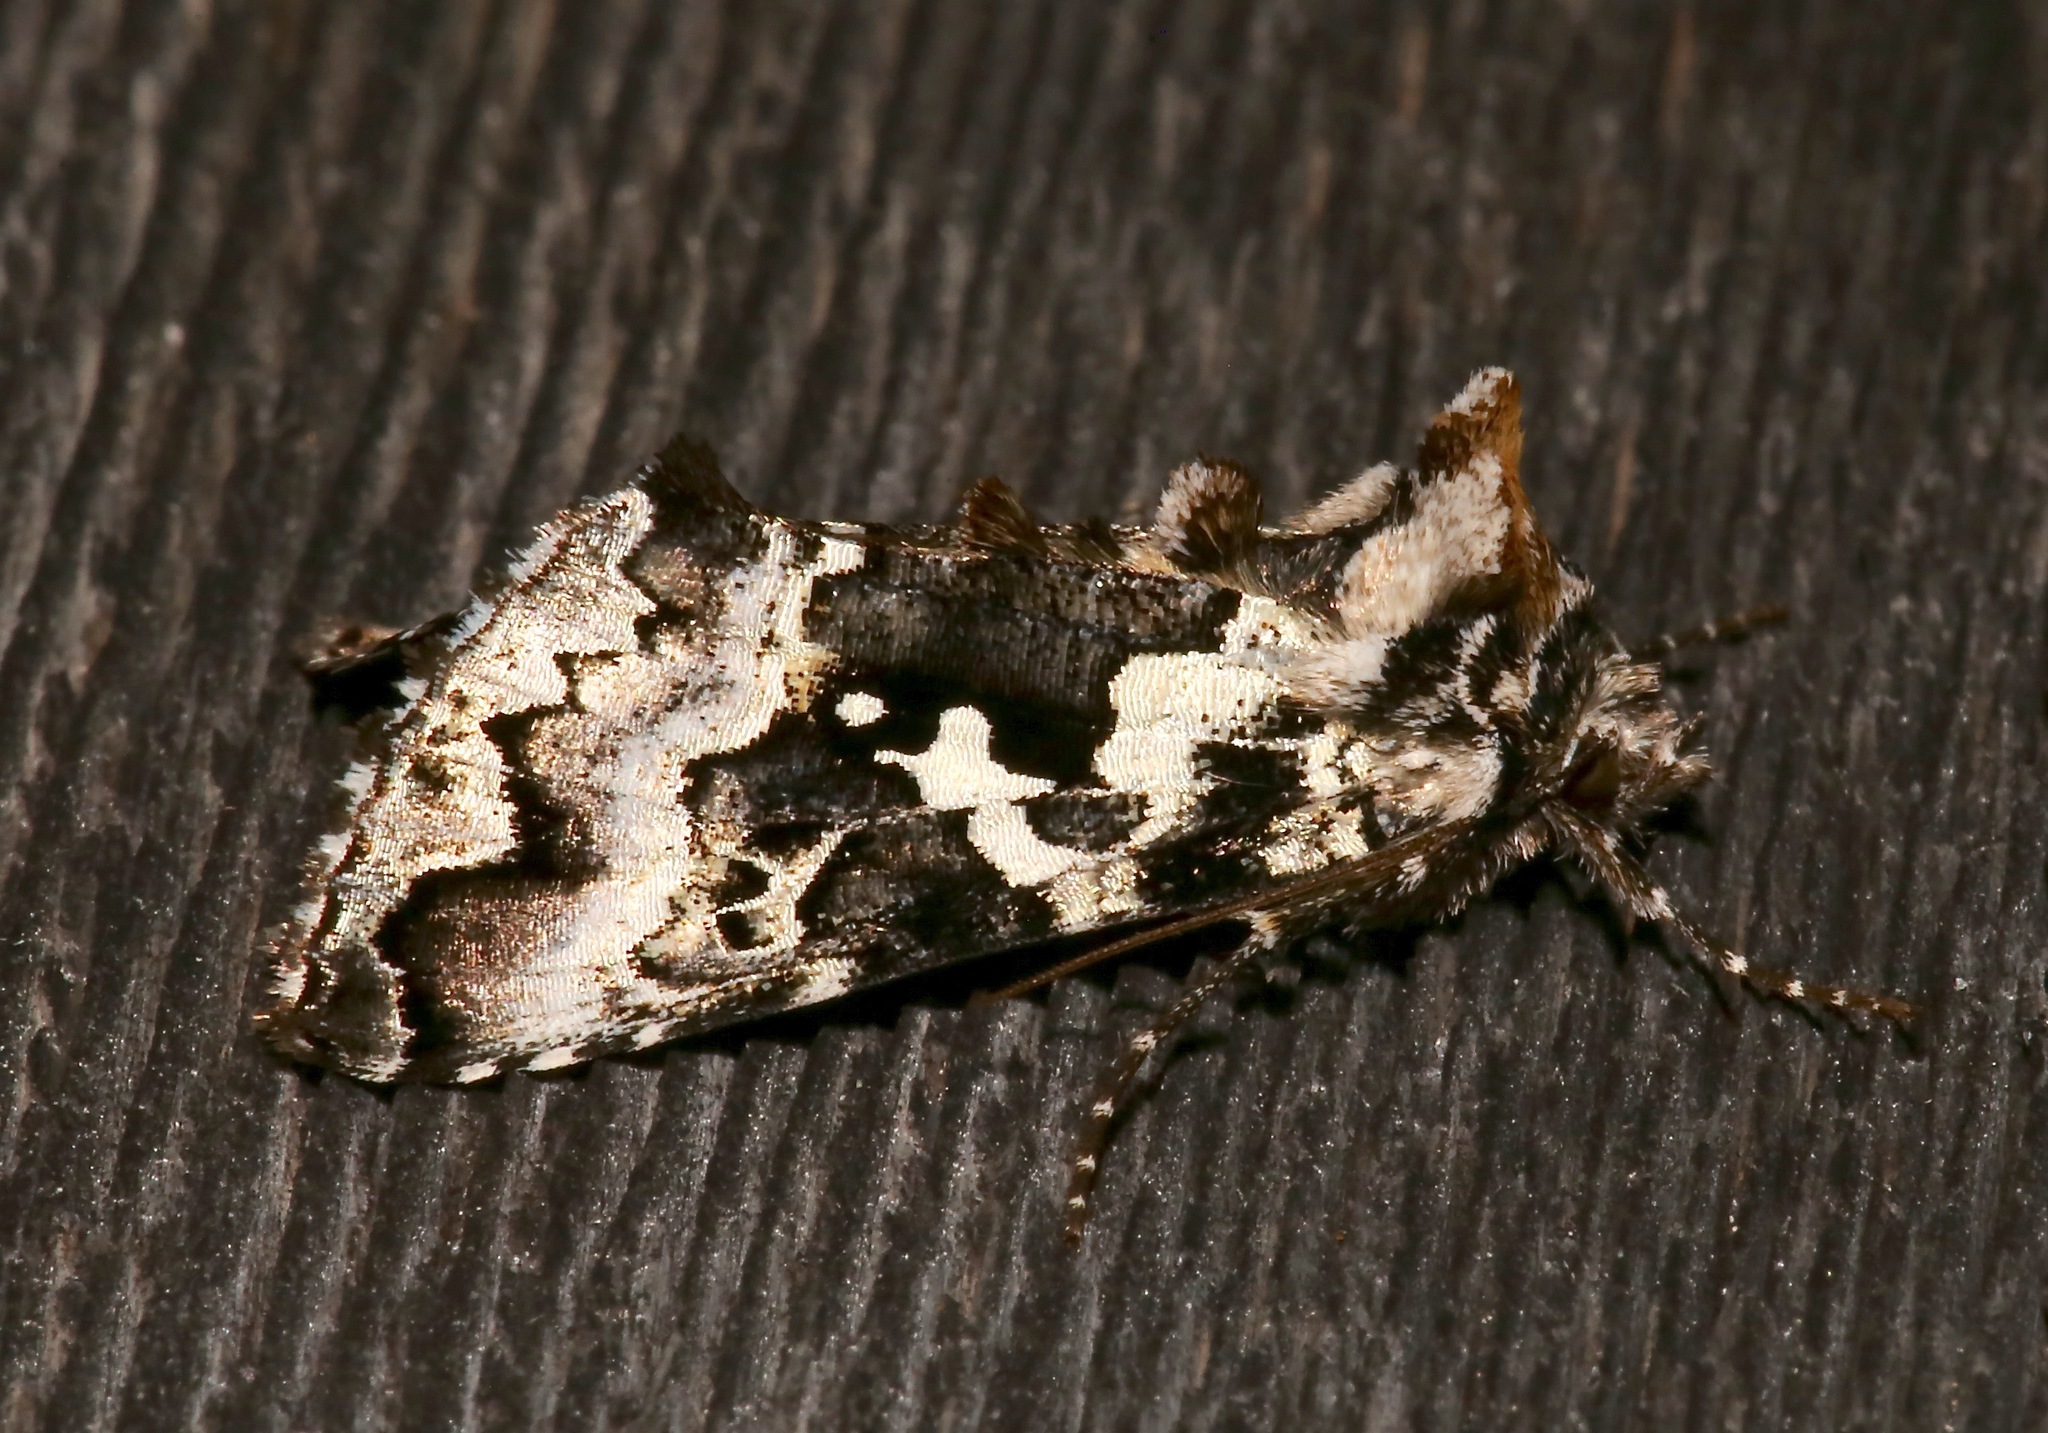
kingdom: Animalia
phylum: Arthropoda
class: Insecta
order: Lepidoptera
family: Noctuidae
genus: Syngrapha
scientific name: Syngrapha rectangula
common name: Angulated cutworm
